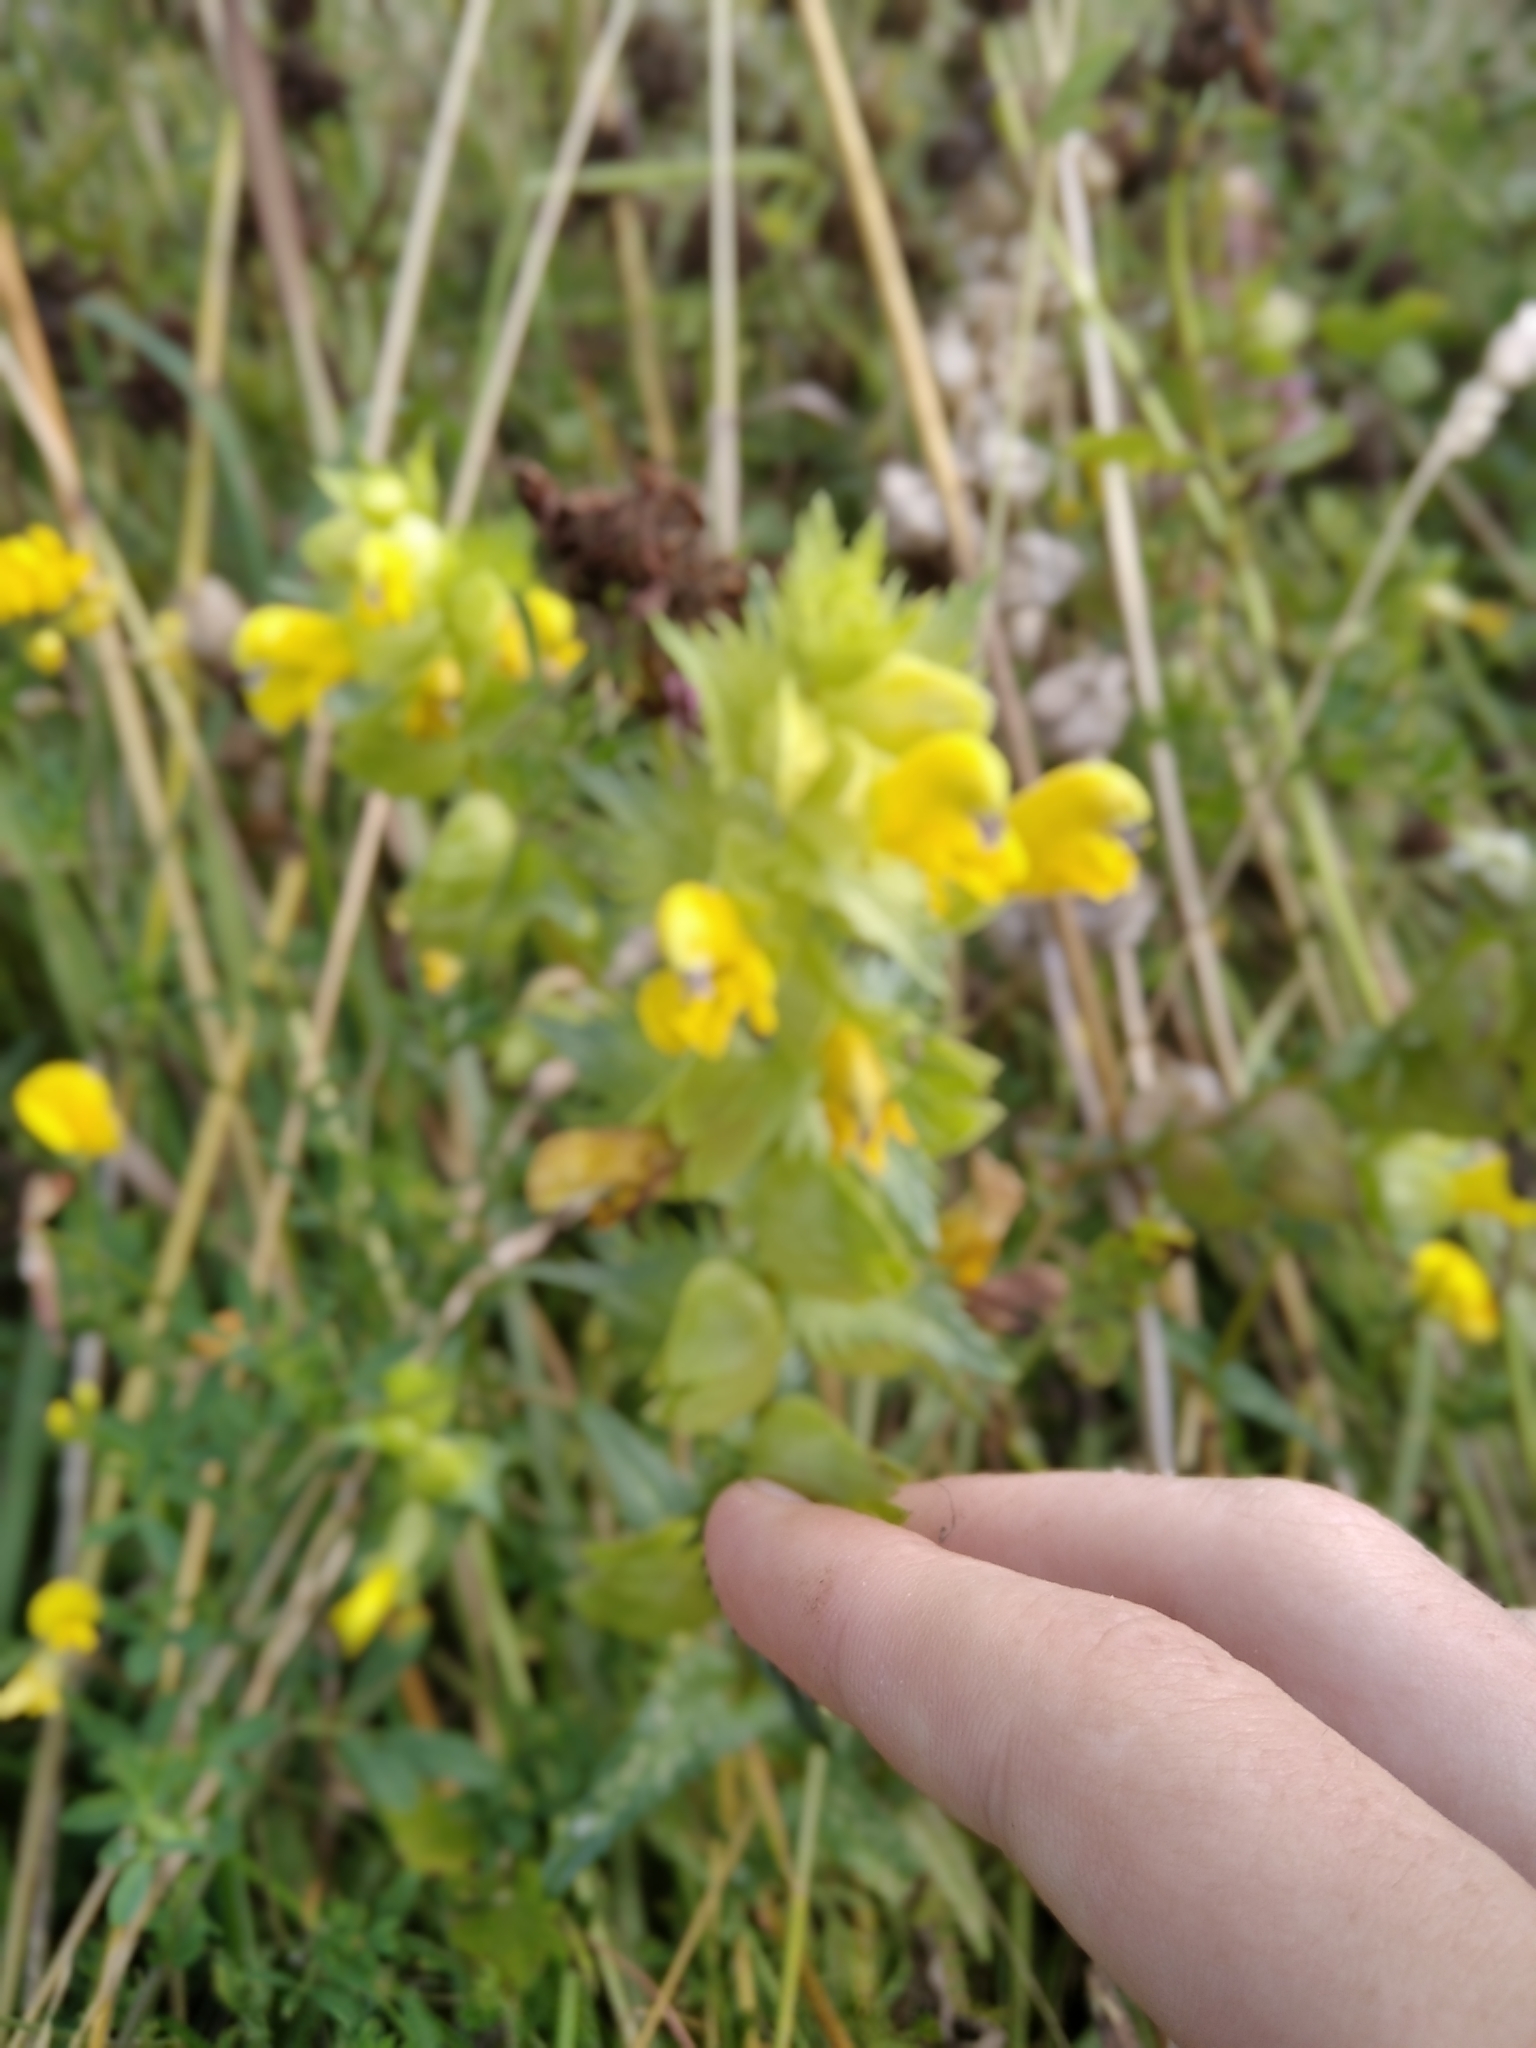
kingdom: Plantae
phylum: Tracheophyta
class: Magnoliopsida
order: Lamiales
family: Orobanchaceae
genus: Rhinanthus
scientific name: Rhinanthus serotinus
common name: Late-flowering yellow rattle
